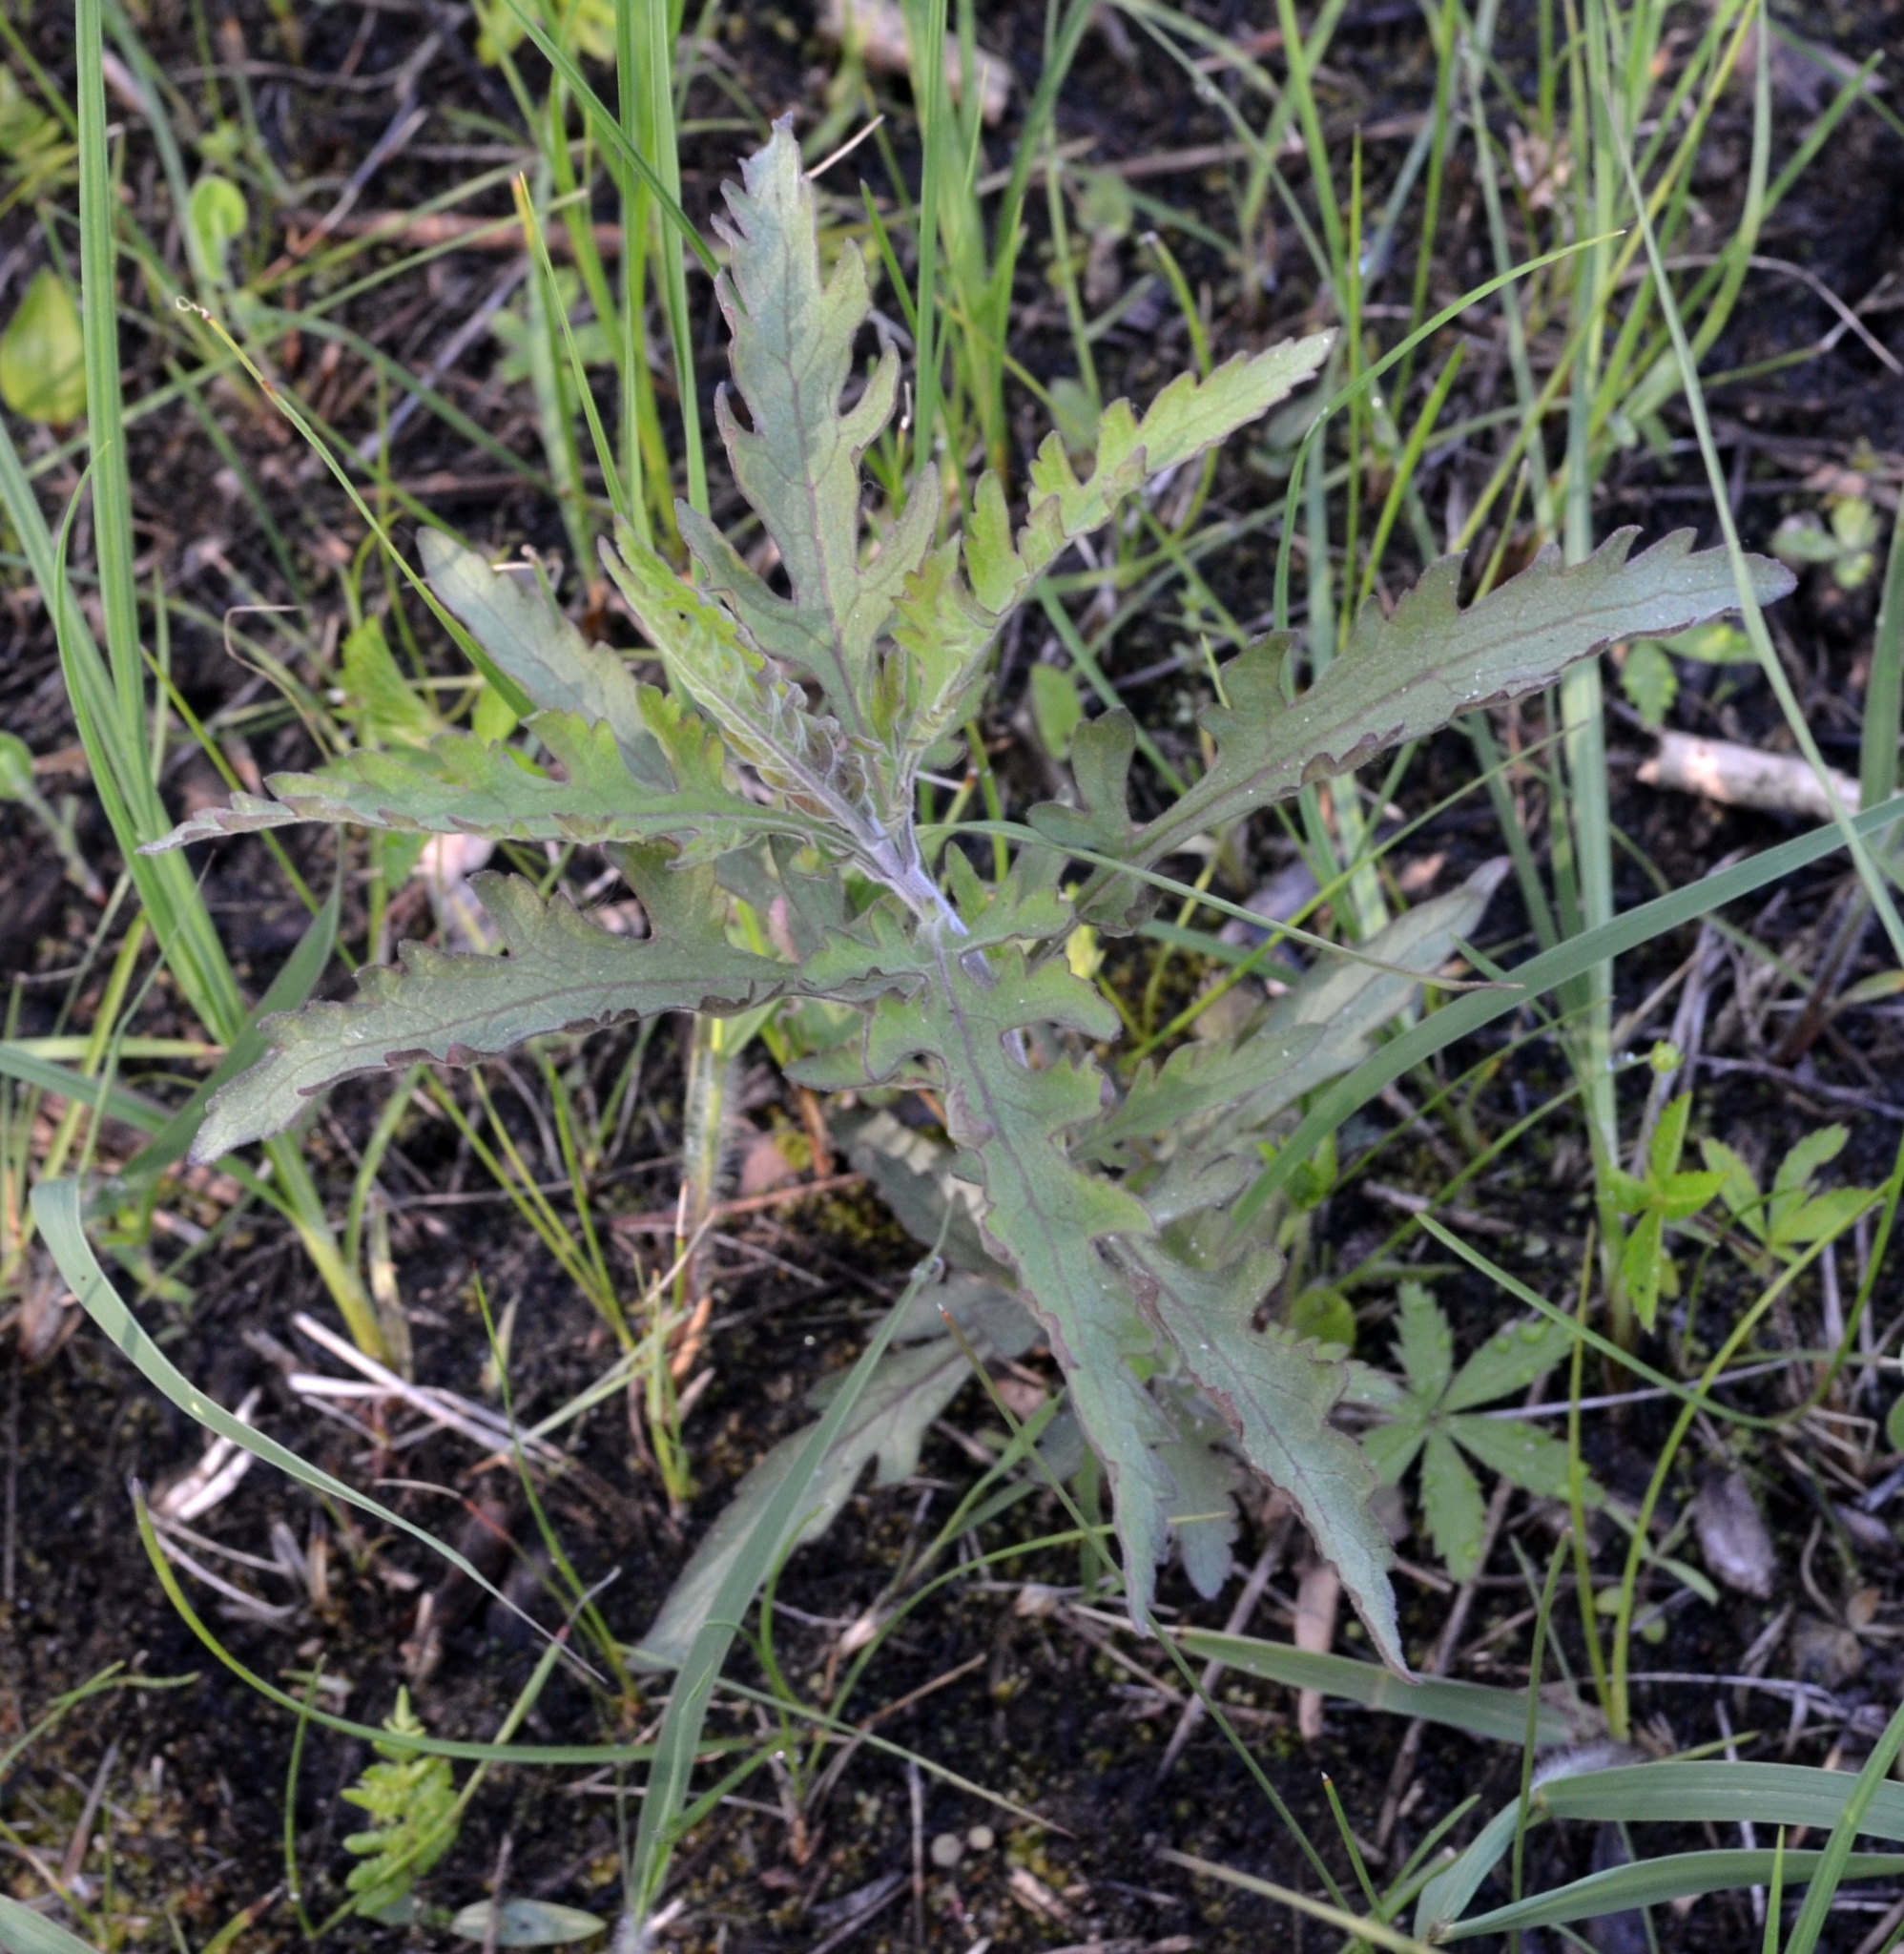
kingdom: Plantae
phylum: Tracheophyta
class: Magnoliopsida
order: Lamiales
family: Orobanchaceae
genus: Aureolaria
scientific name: Aureolaria grandiflora
